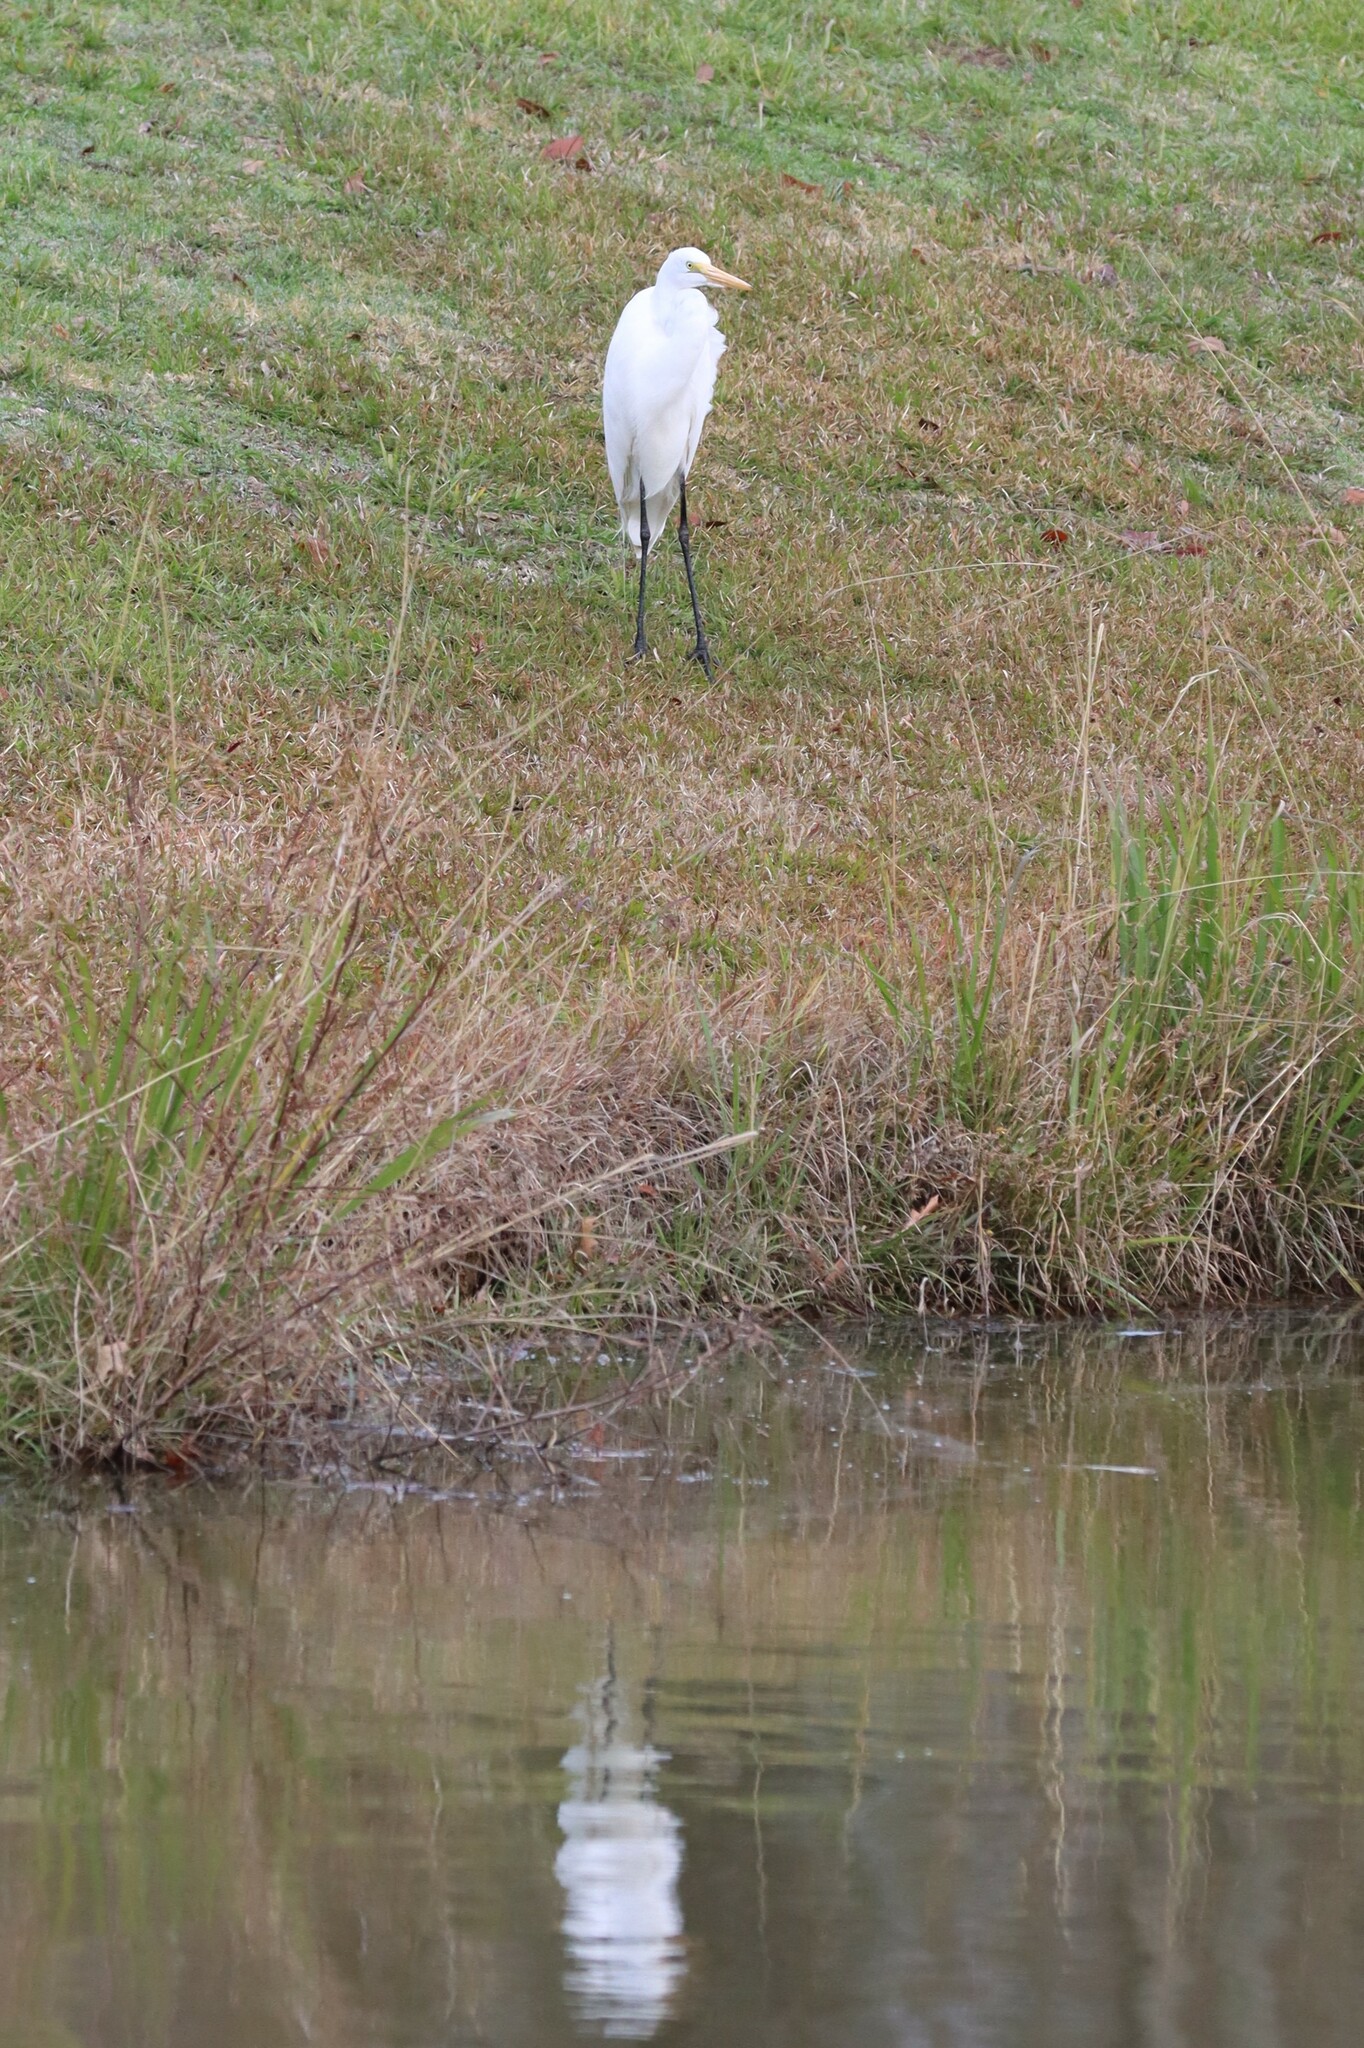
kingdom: Animalia
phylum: Chordata
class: Aves
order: Pelecaniformes
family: Ardeidae
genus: Ardea
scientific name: Ardea alba
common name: Great egret
